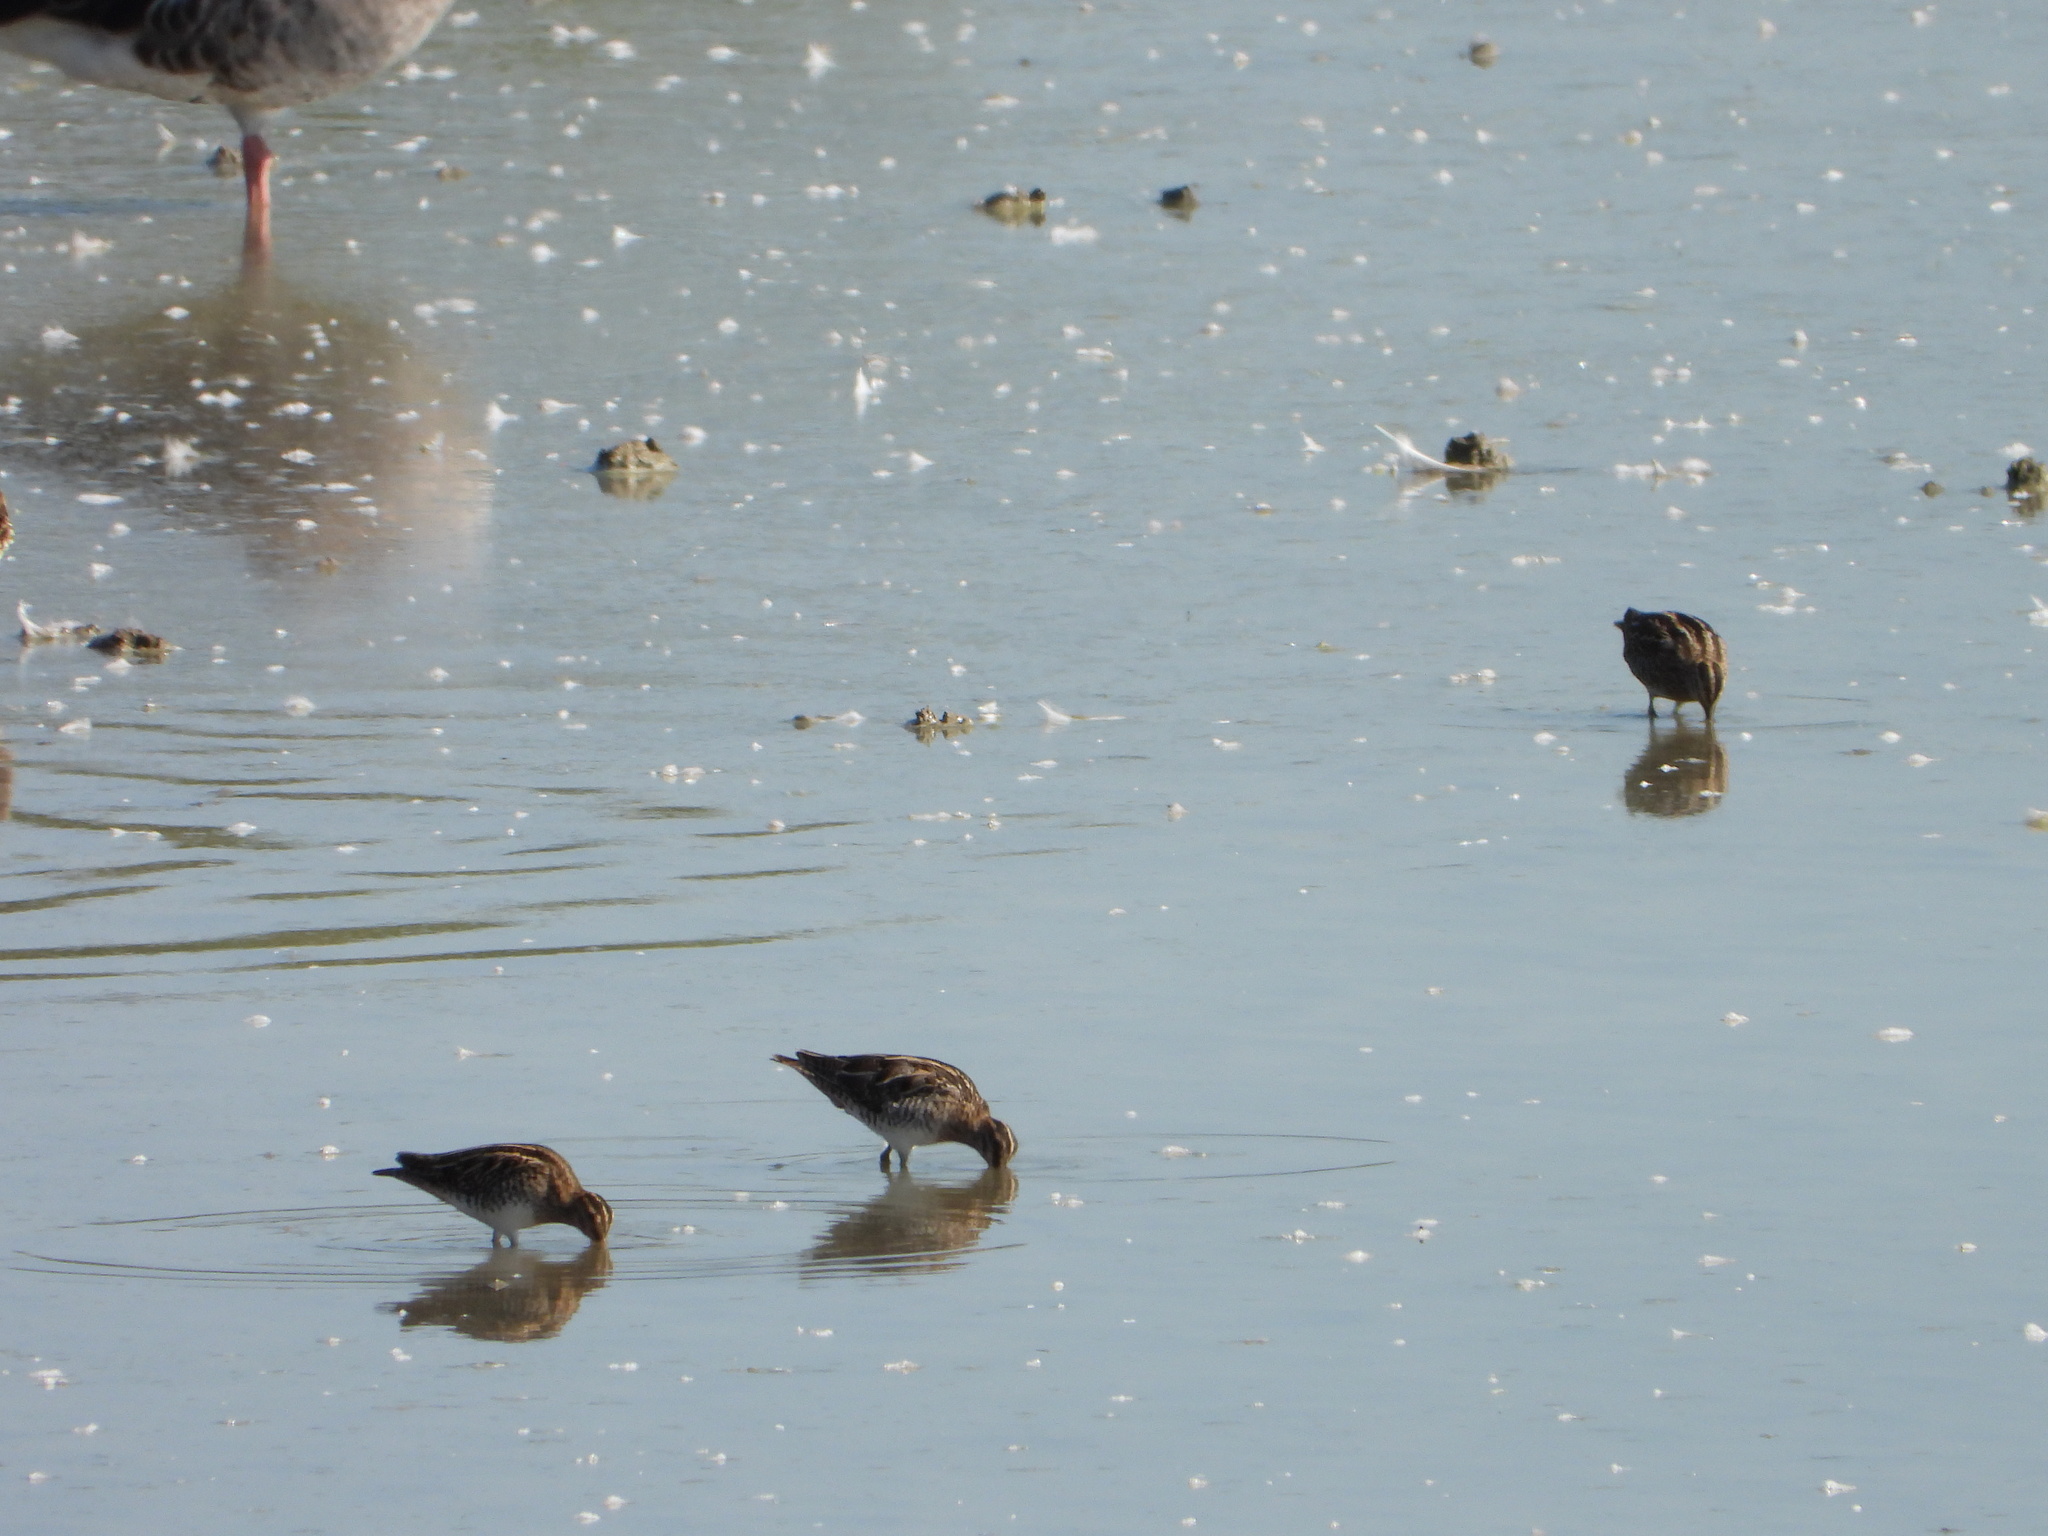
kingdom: Animalia
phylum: Chordata
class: Aves
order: Charadriiformes
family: Scolopacidae
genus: Gallinago
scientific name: Gallinago gallinago
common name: Common snipe
